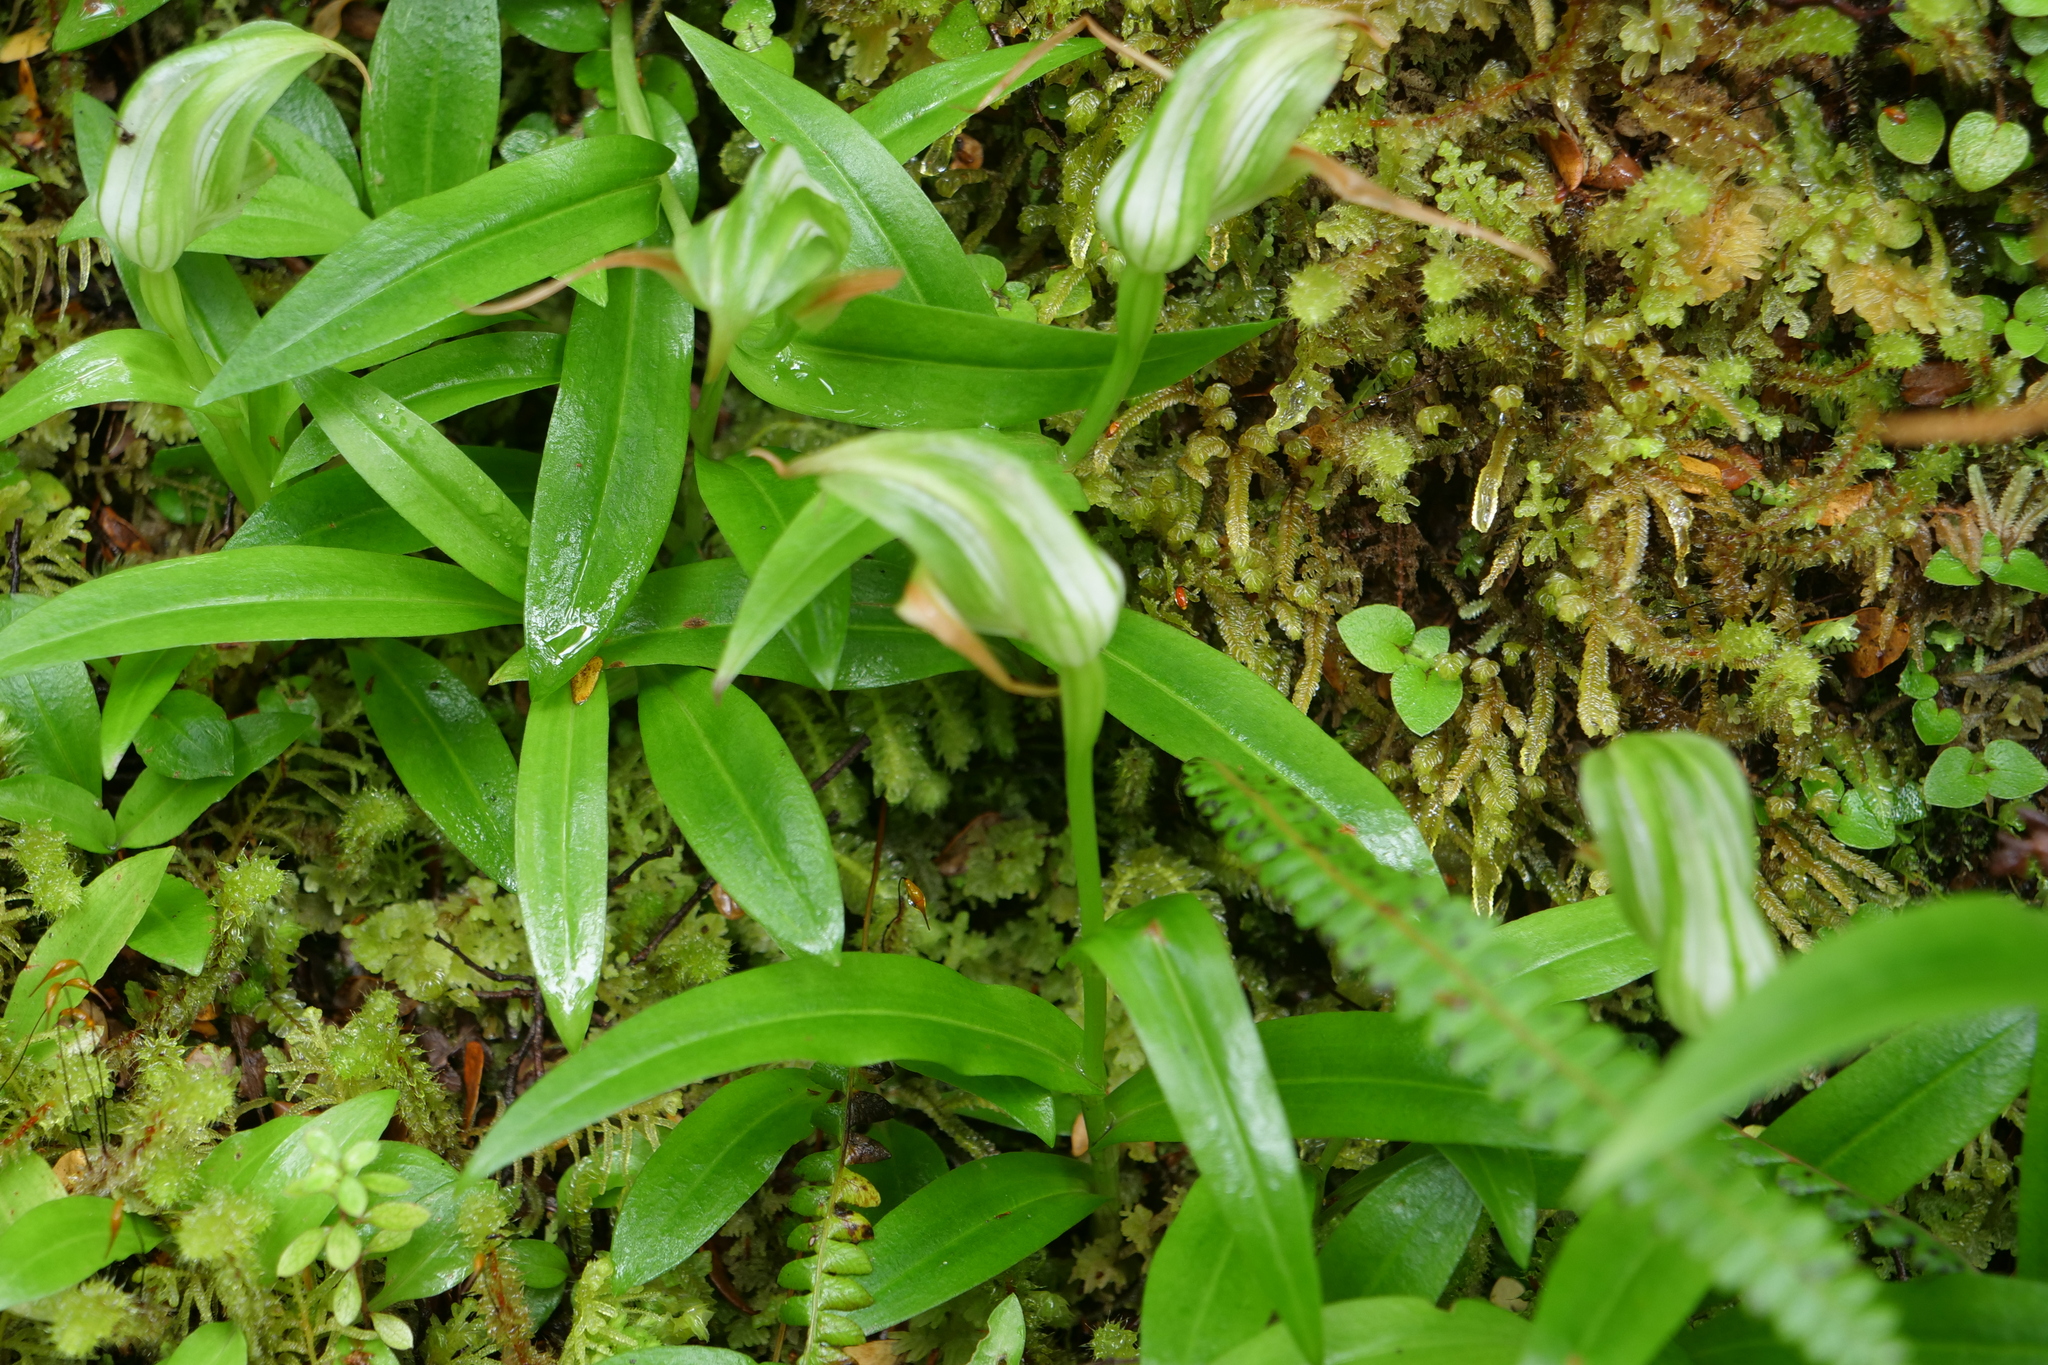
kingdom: Plantae
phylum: Tracheophyta
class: Liliopsida
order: Asparagales
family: Orchidaceae
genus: Pterostylis
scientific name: Pterostylis australis
